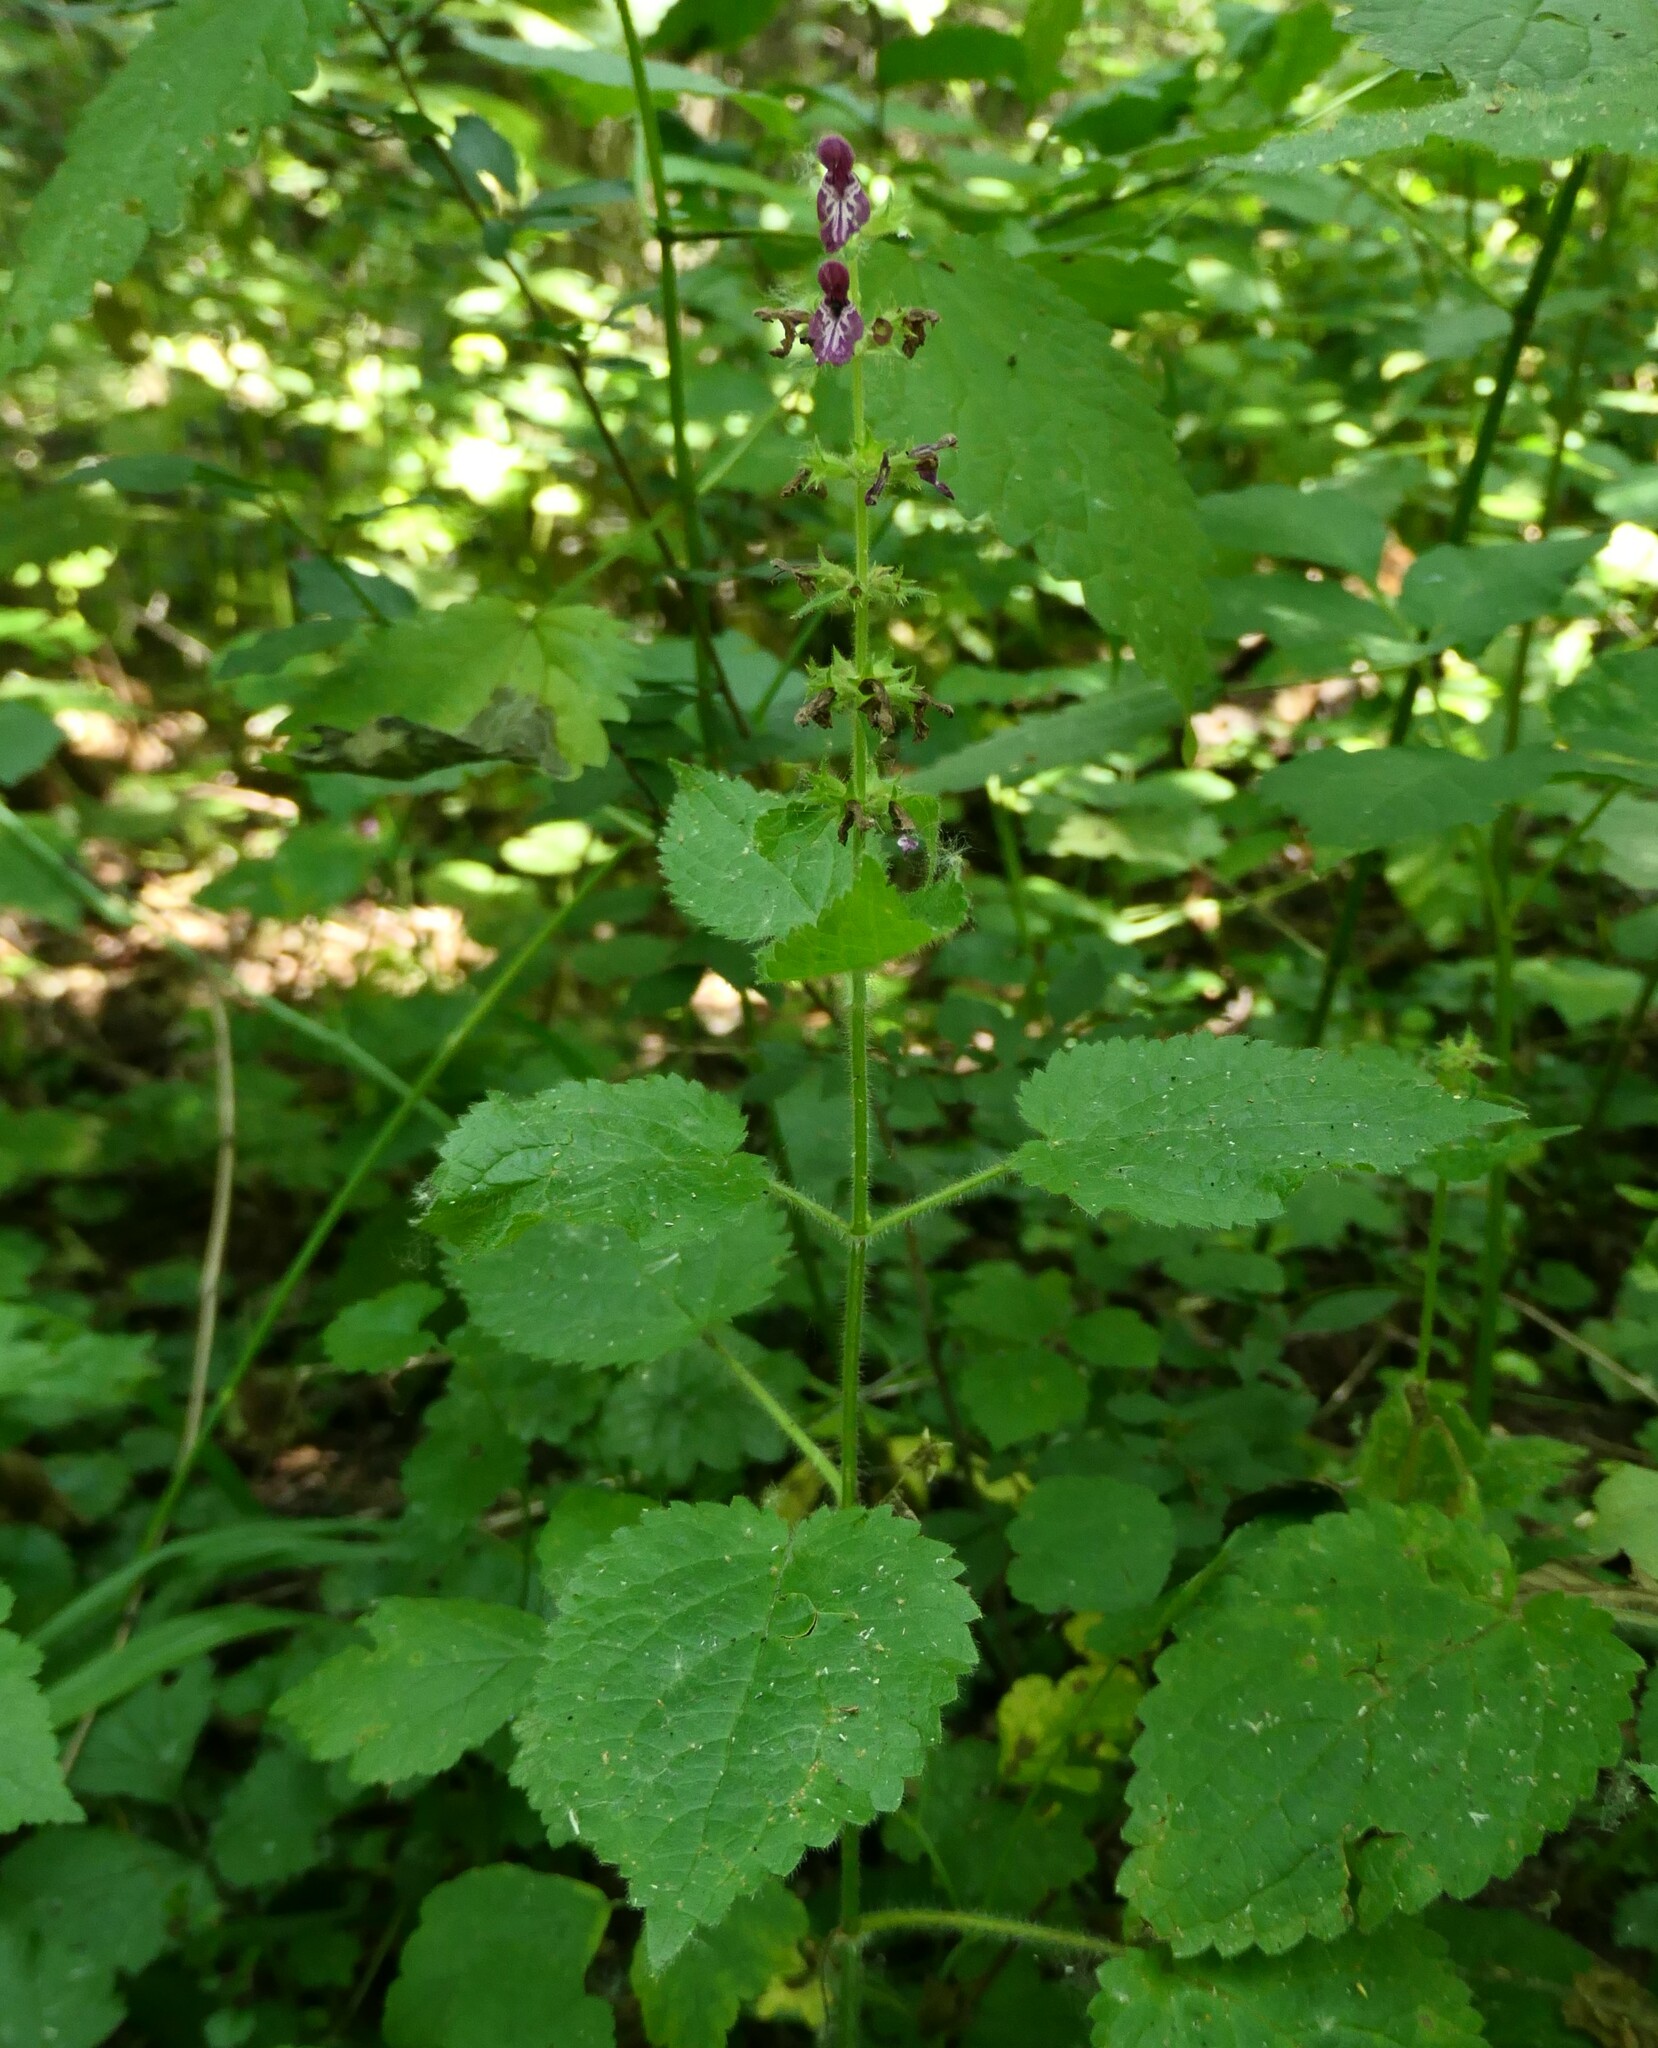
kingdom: Plantae
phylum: Tracheophyta
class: Magnoliopsida
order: Lamiales
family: Lamiaceae
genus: Stachys
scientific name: Stachys sylvatica
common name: Hedge woundwort
